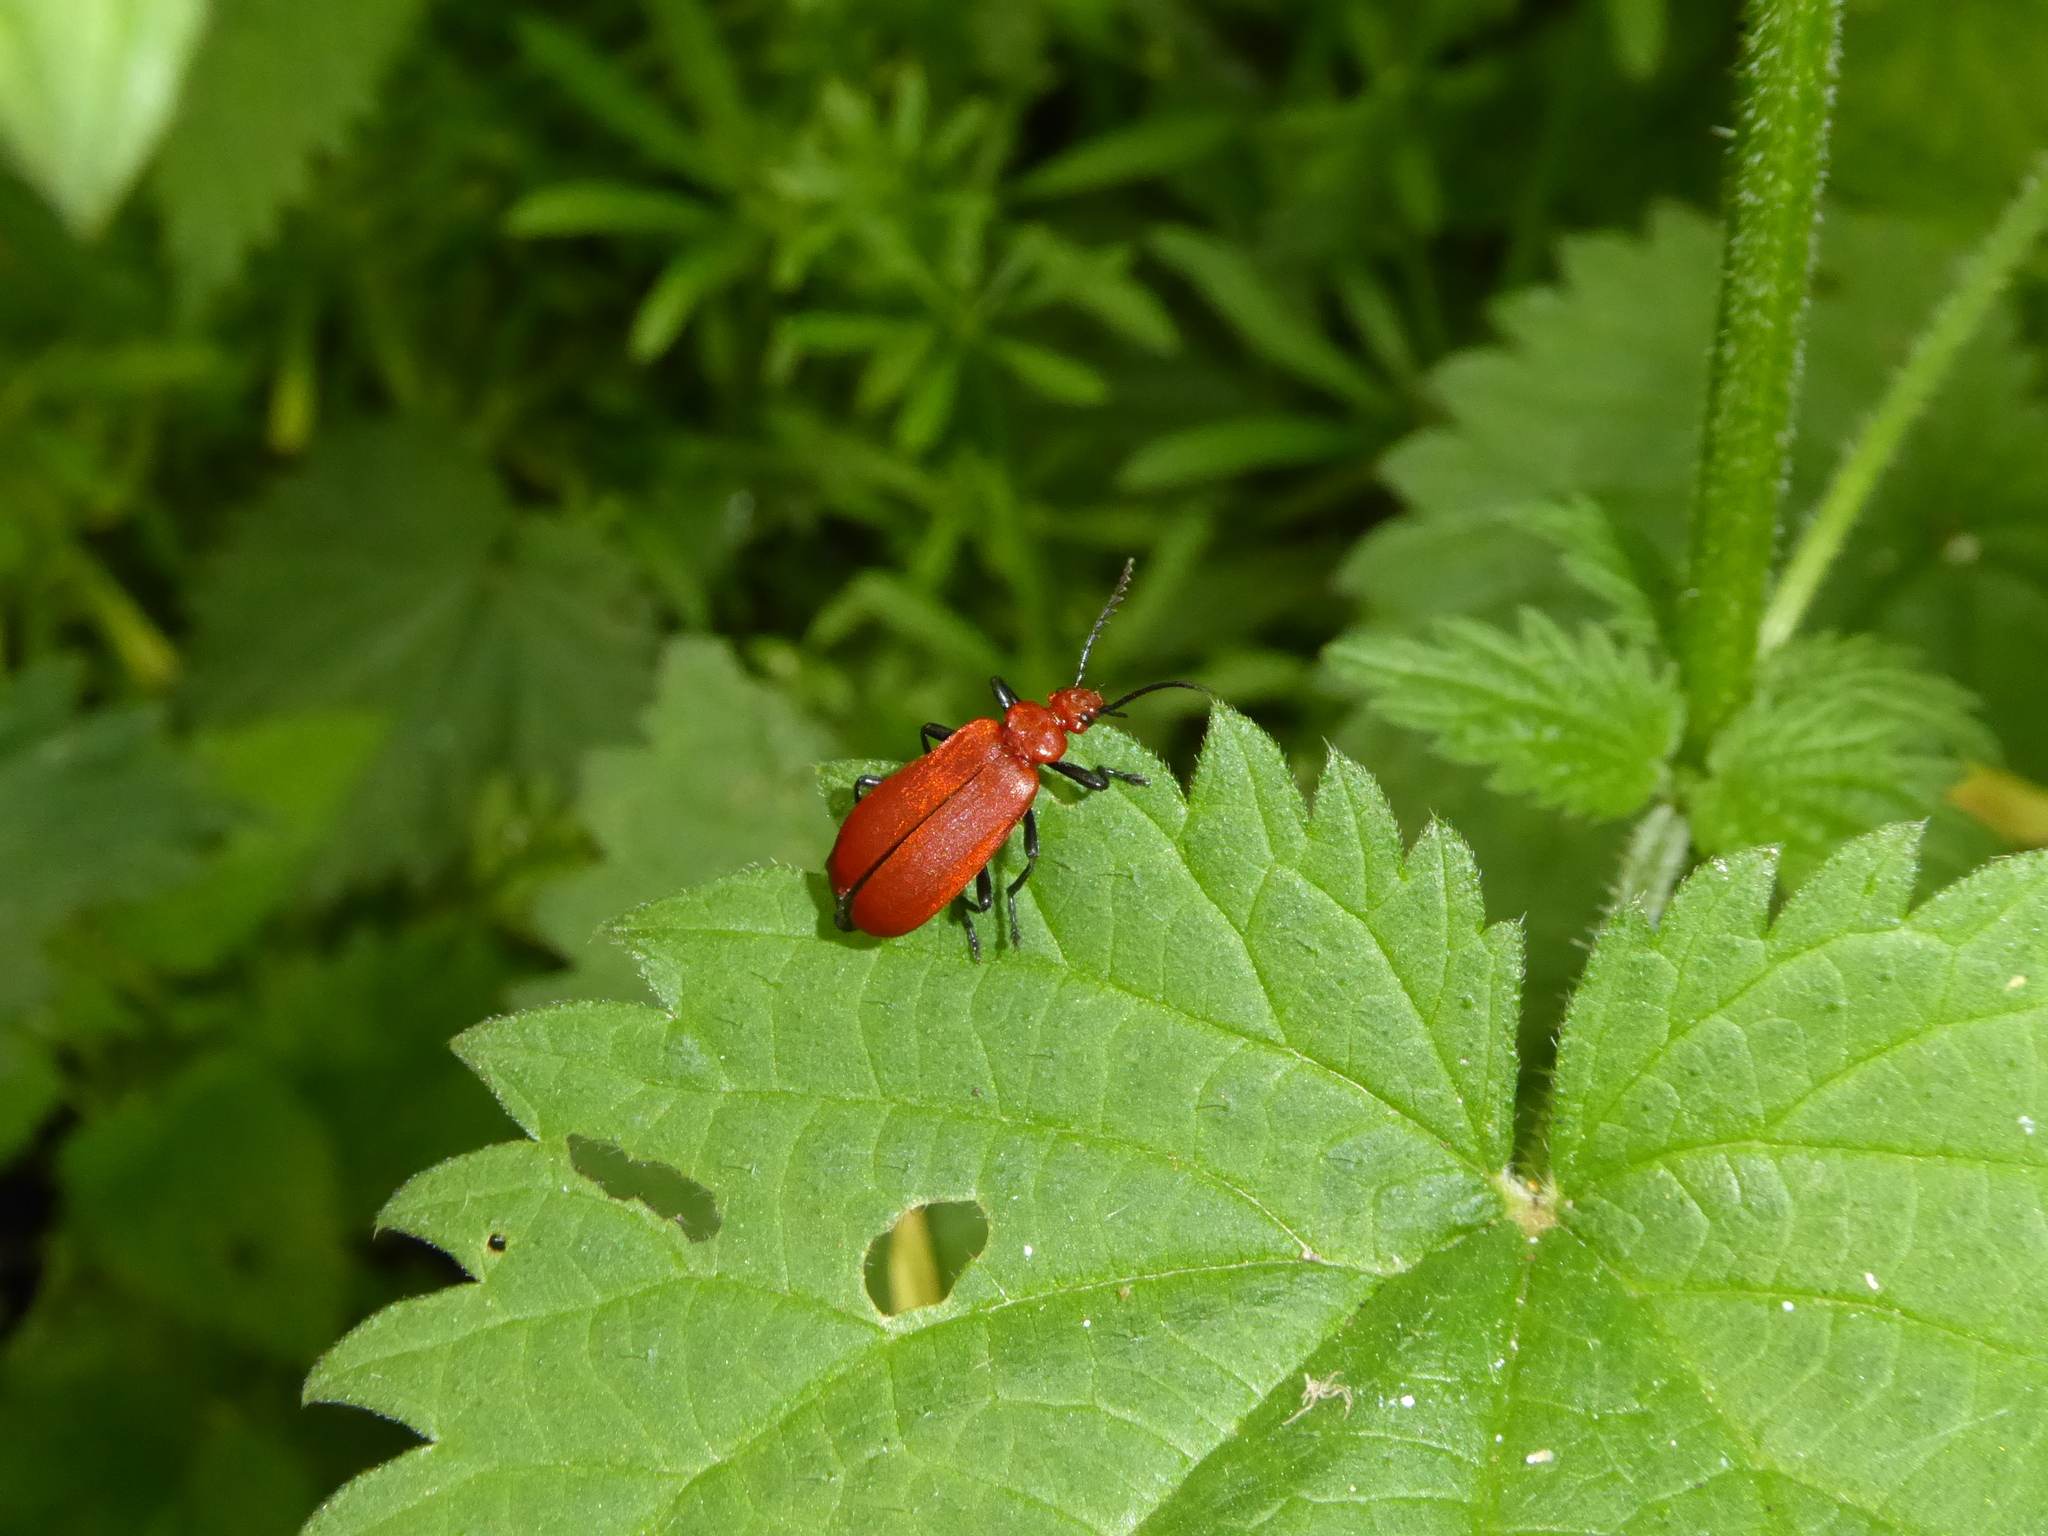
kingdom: Animalia
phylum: Arthropoda
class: Insecta
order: Coleoptera
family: Pyrochroidae
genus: Pyrochroa
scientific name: Pyrochroa serraticornis
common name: Red-headed cardinal beetle
